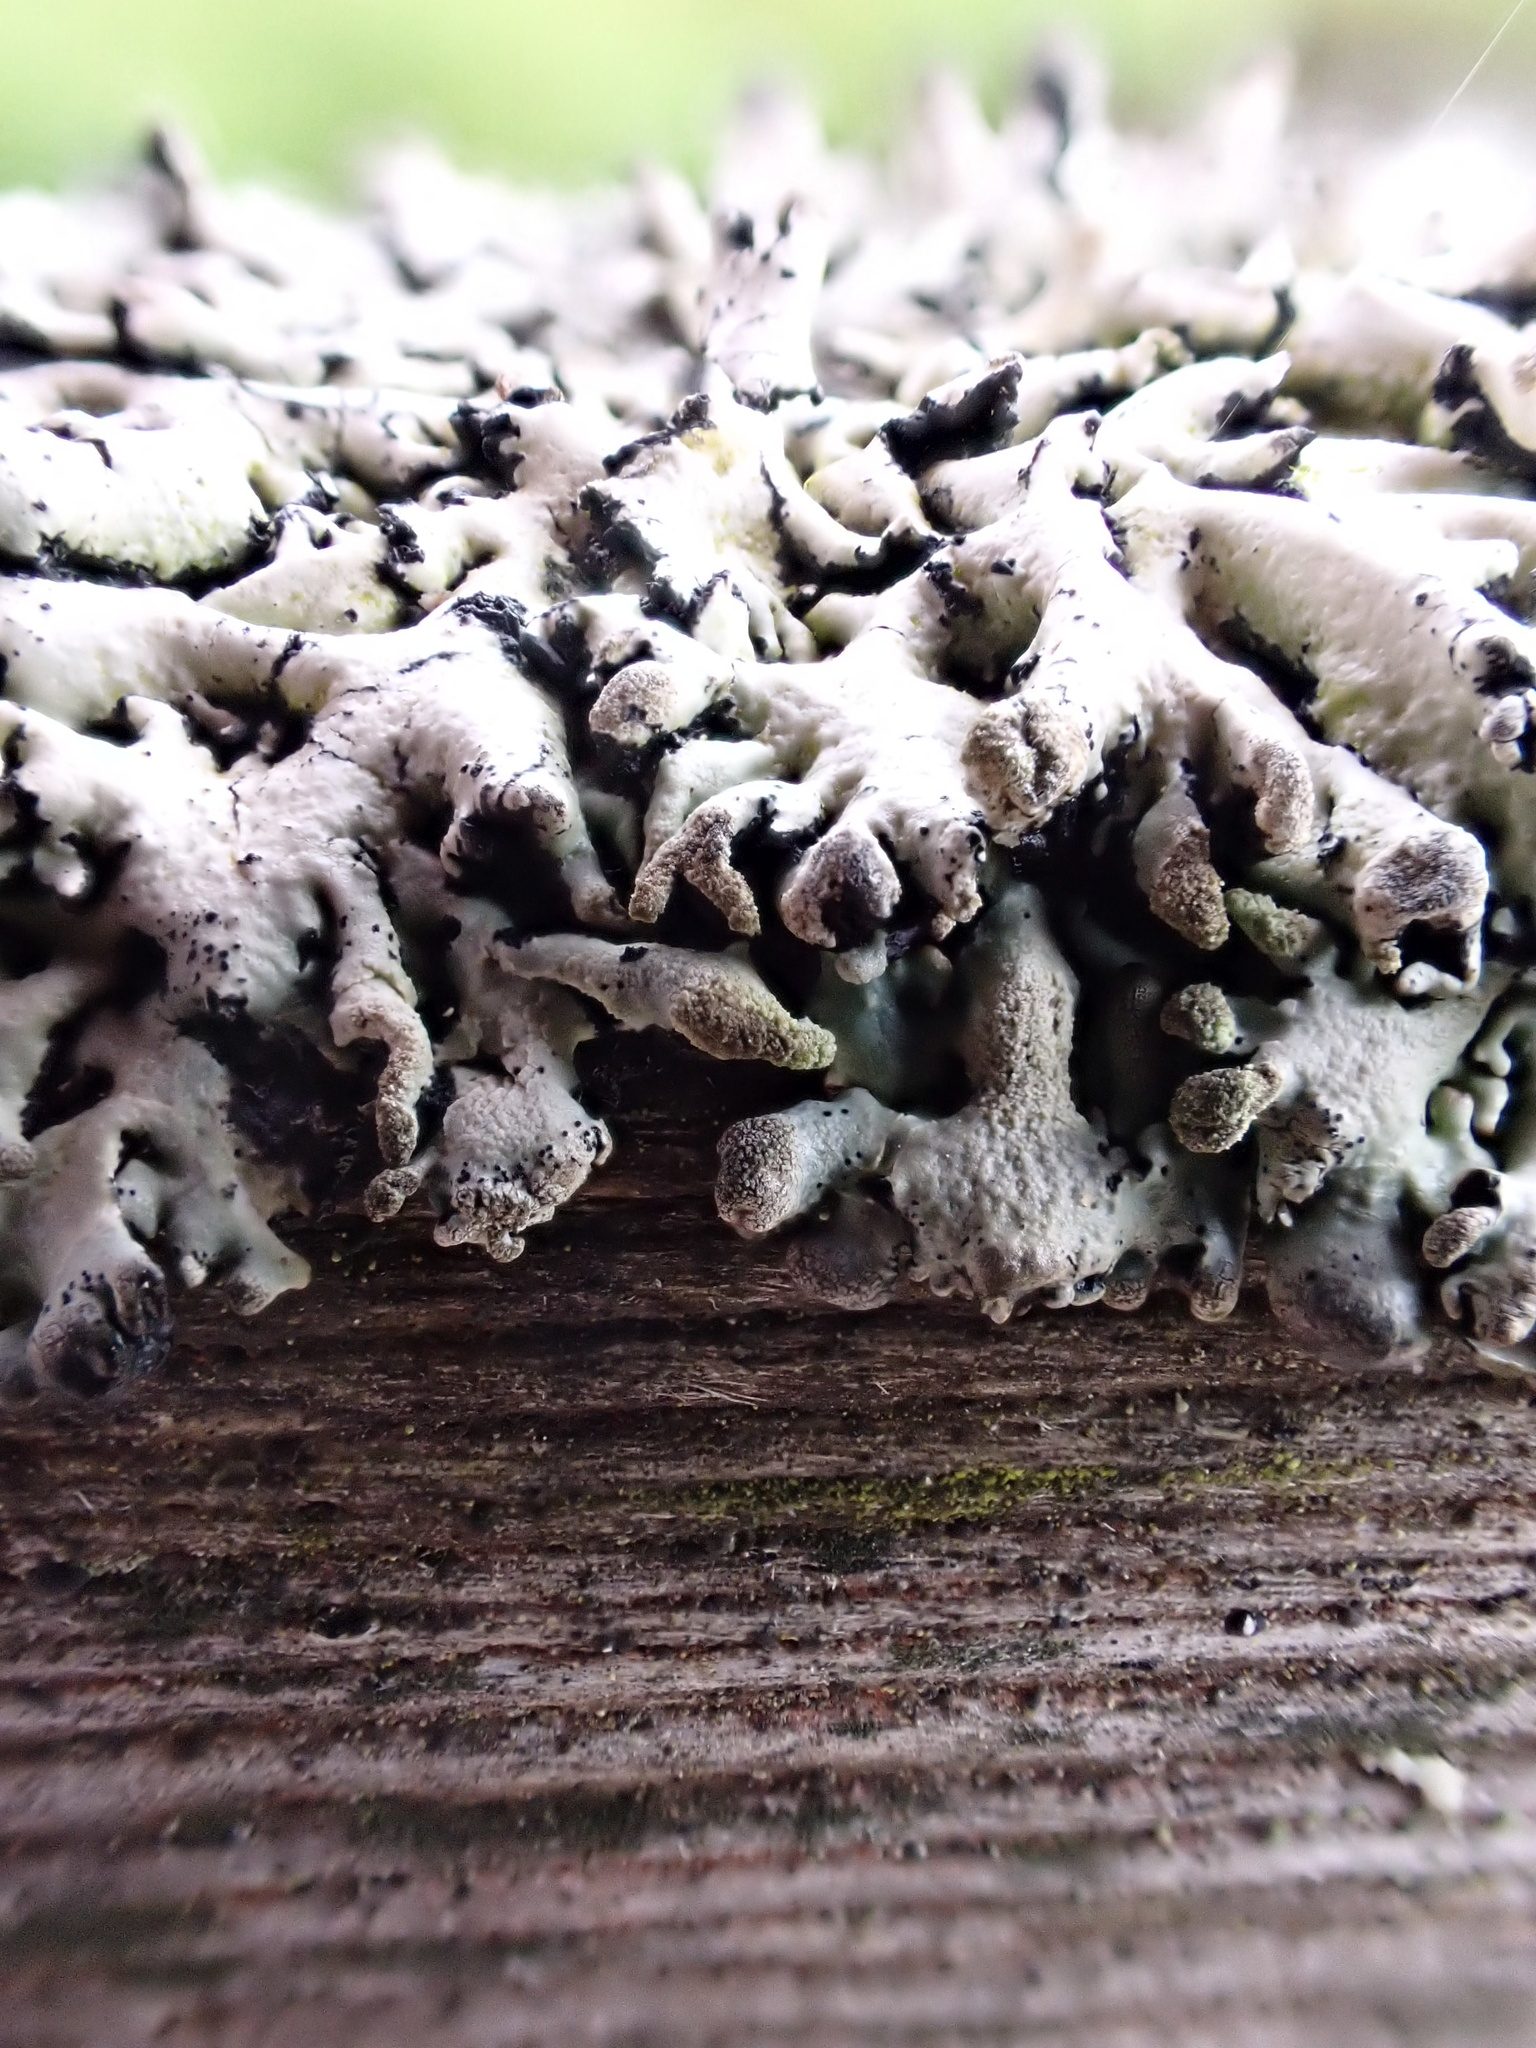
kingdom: Fungi
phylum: Ascomycota
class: Lecanoromycetes
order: Lecanorales
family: Parmeliaceae
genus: Hypogymnia
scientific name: Hypogymnia physodes
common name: Dark crottle
